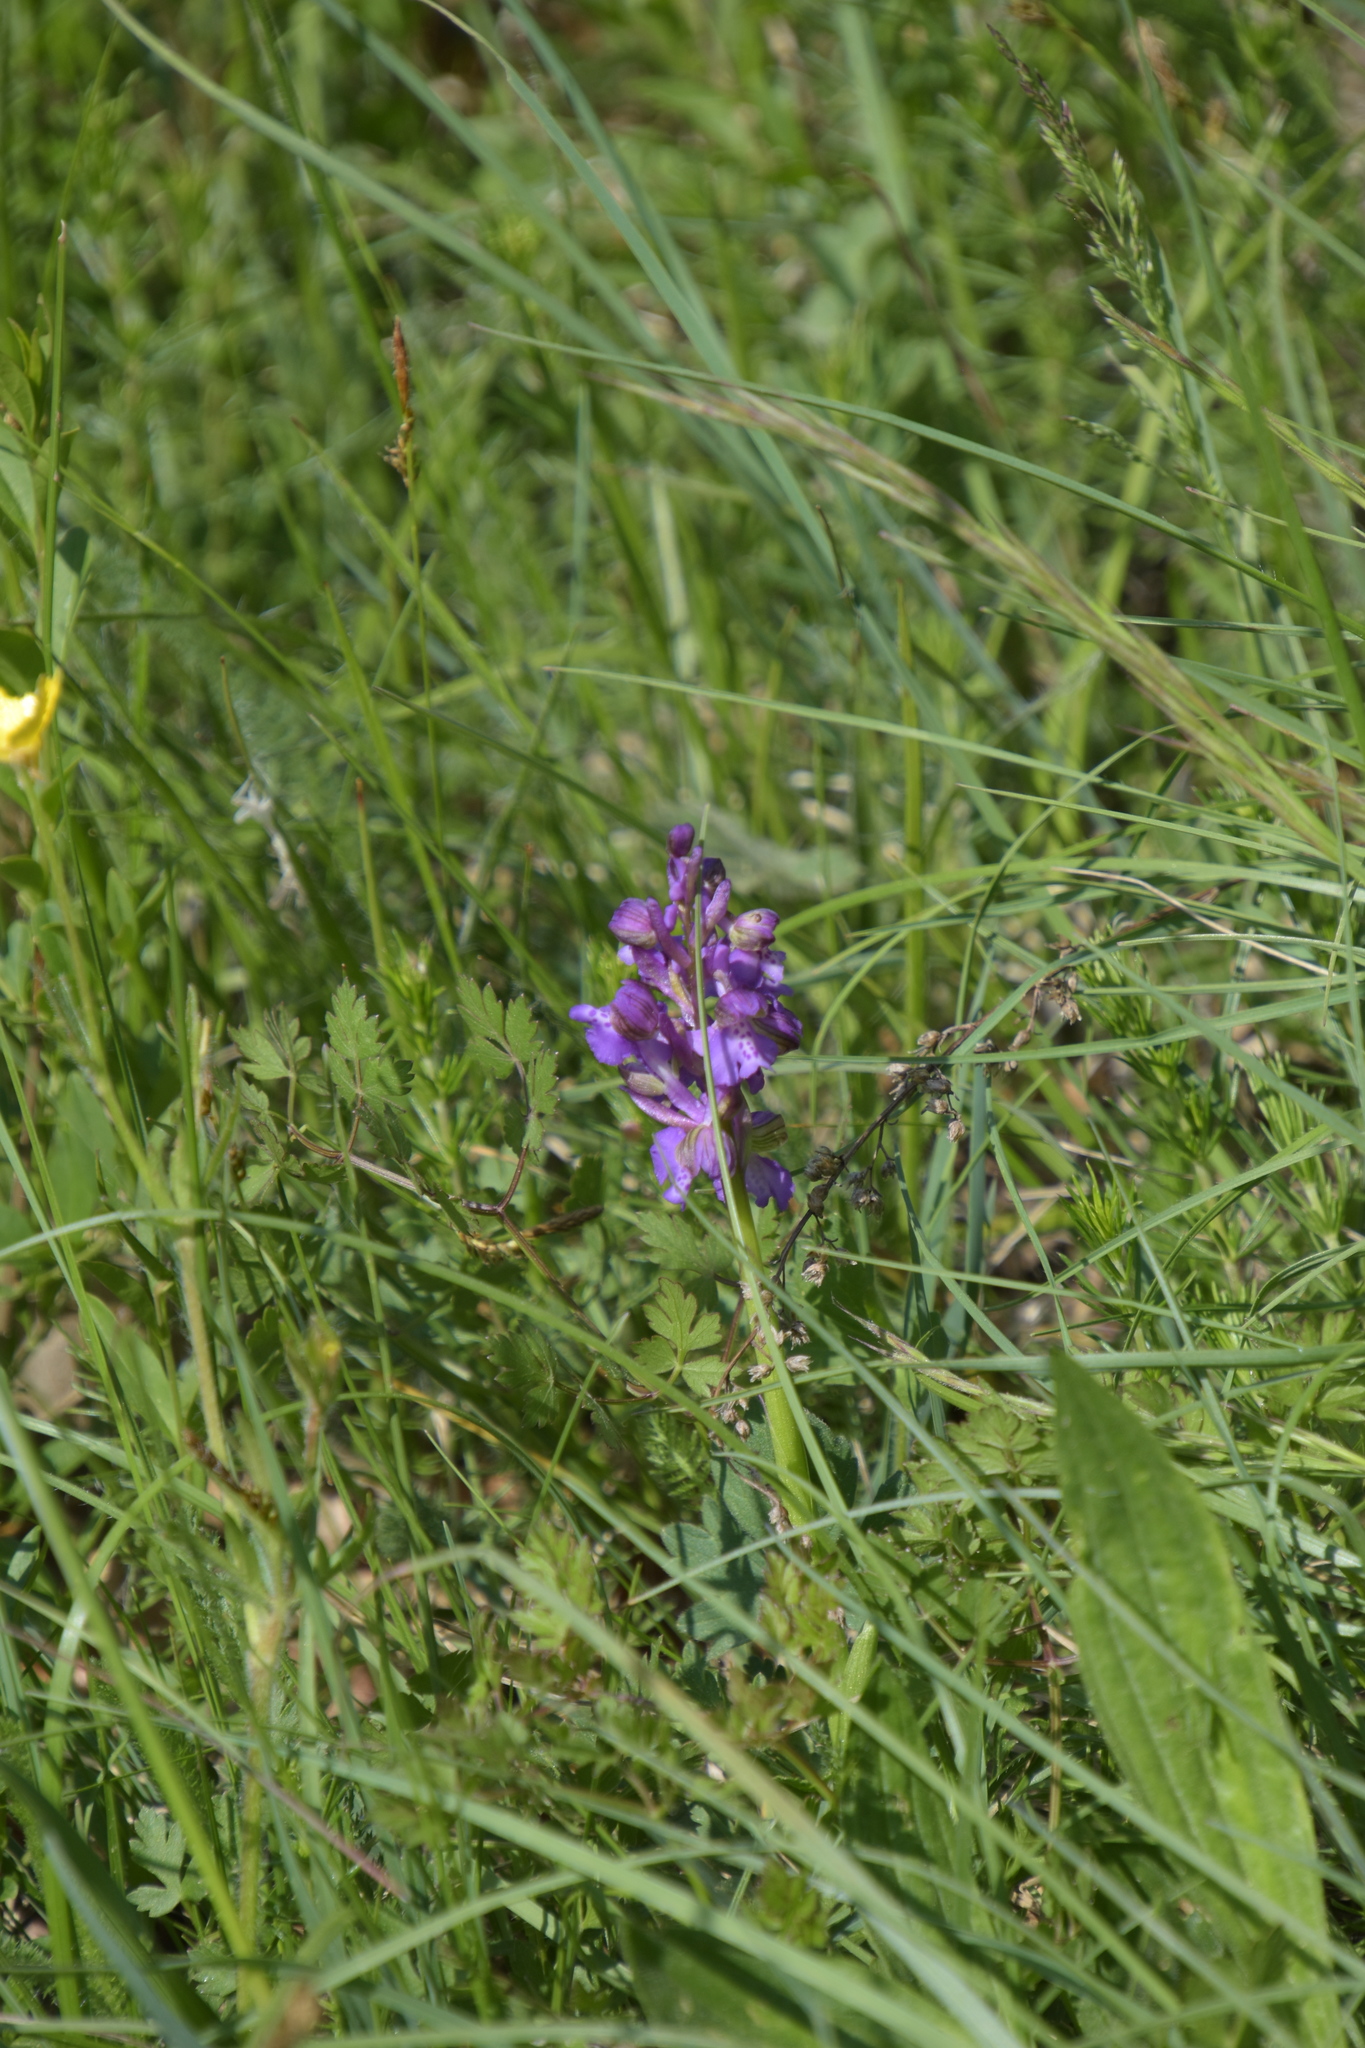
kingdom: Plantae
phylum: Tracheophyta
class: Liliopsida
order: Asparagales
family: Orchidaceae
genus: Anacamptis
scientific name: Anacamptis morio
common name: Green-winged orchid
